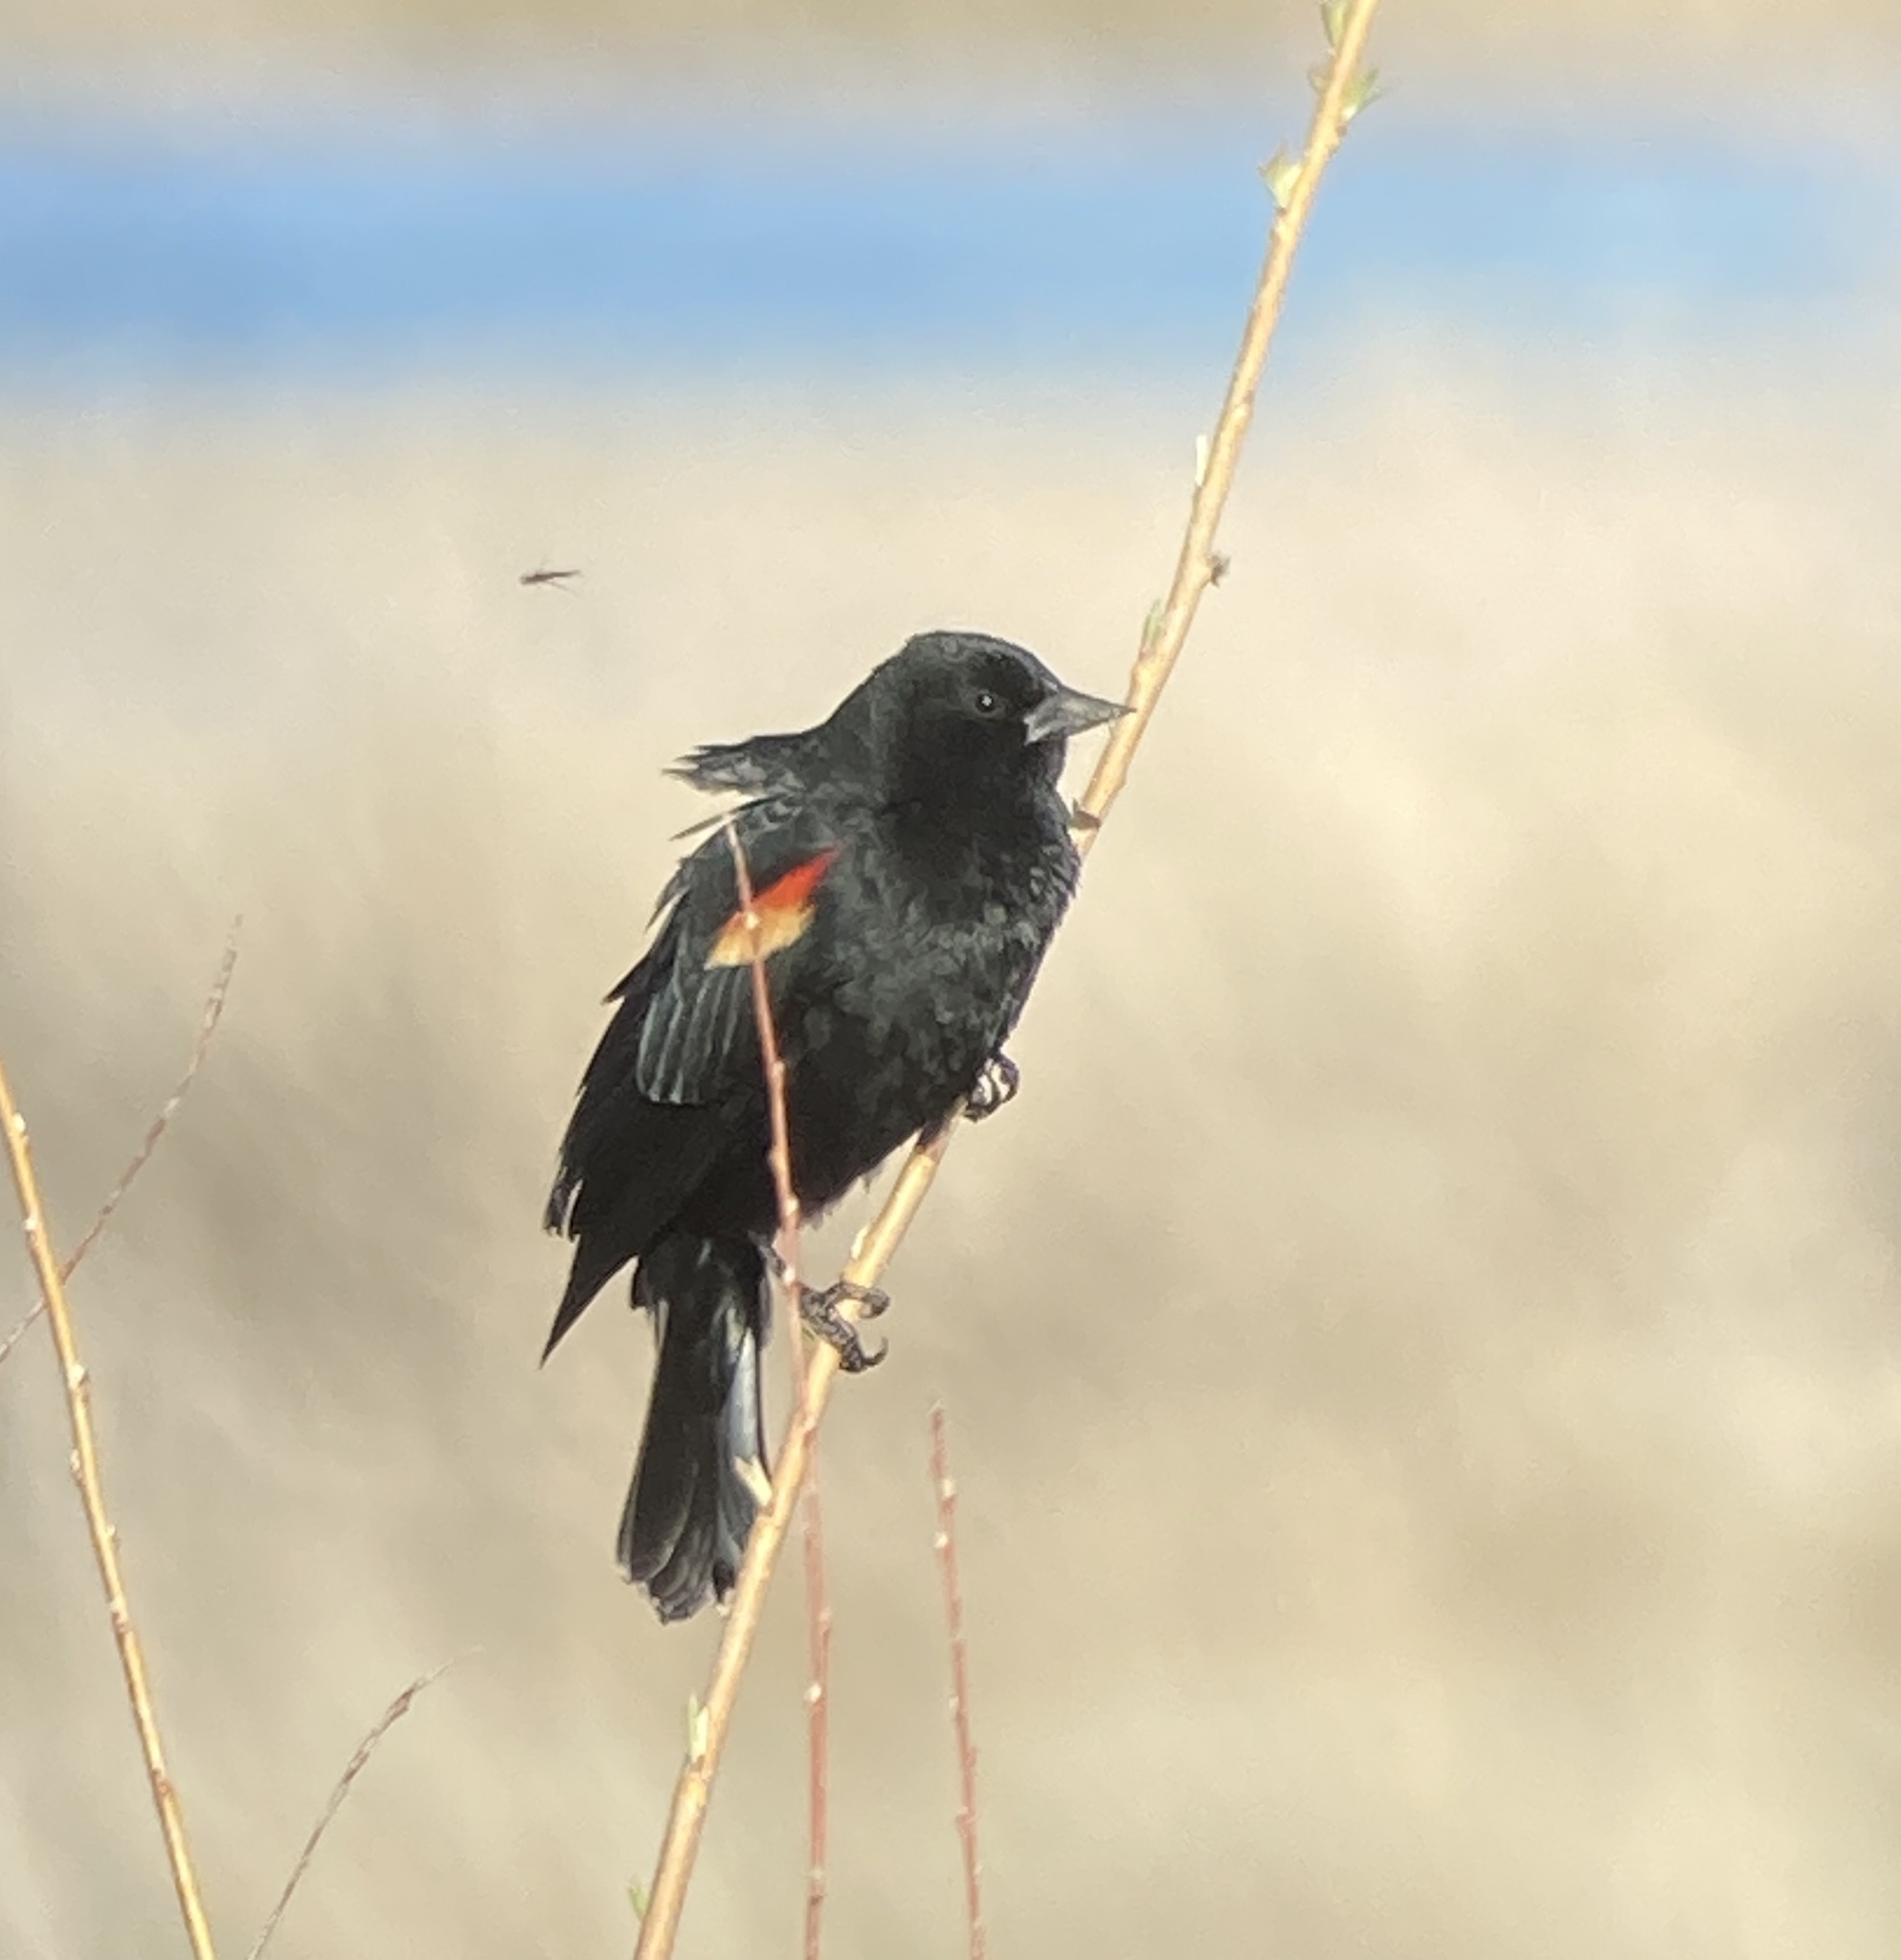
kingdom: Animalia
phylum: Chordata
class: Aves
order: Passeriformes
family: Icteridae
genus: Agelaius
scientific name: Agelaius phoeniceus
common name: Red-winged blackbird
